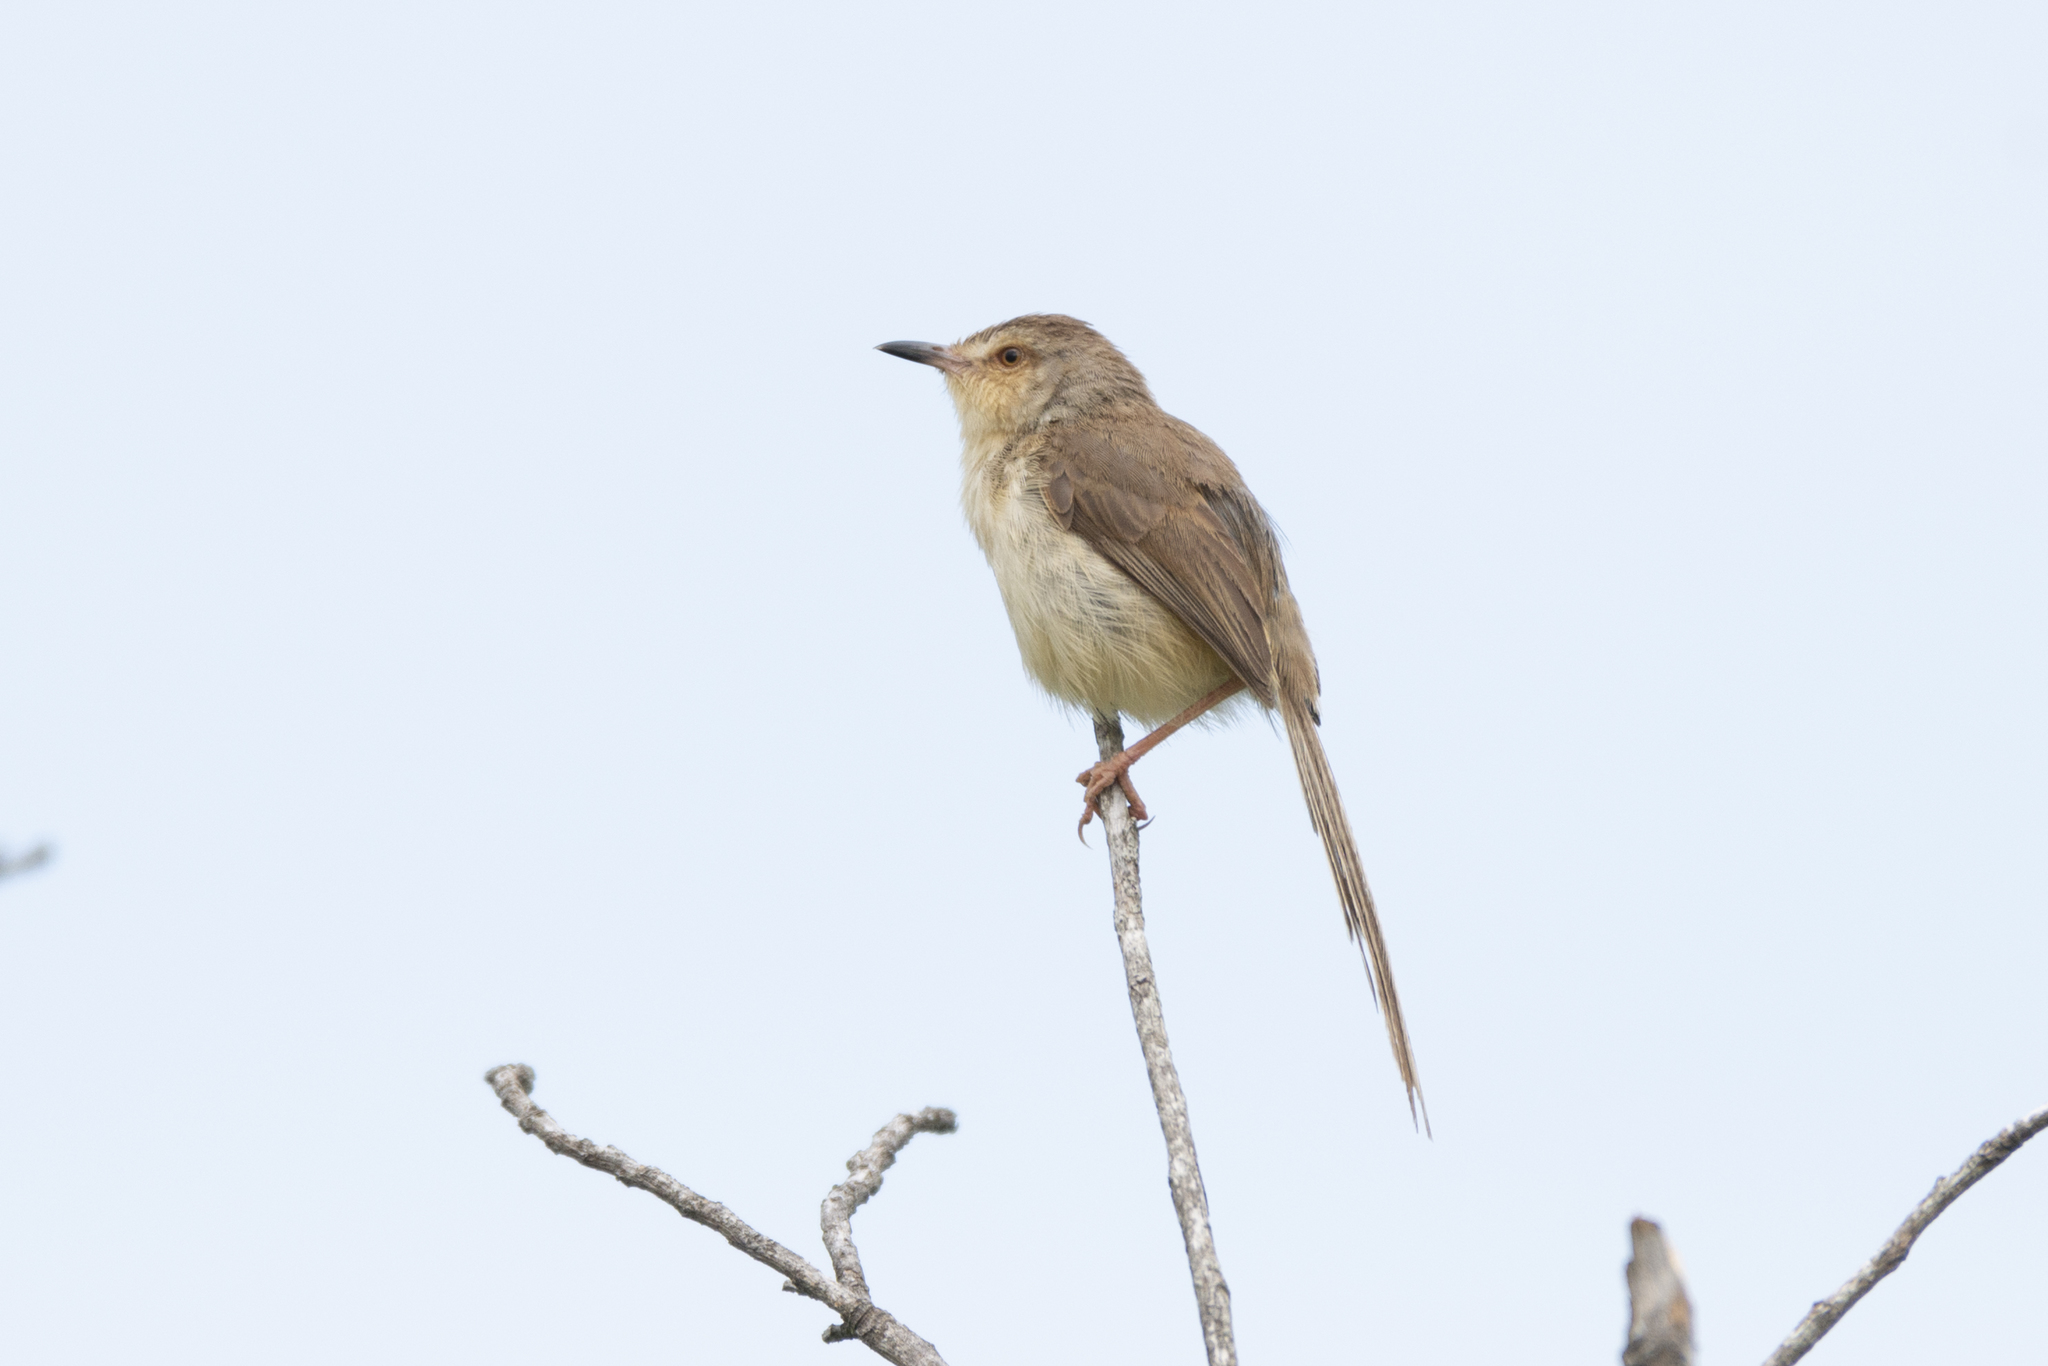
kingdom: Animalia
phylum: Chordata
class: Aves
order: Passeriformes
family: Cisticolidae
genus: Prinia
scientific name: Prinia inornata
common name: Plain prinia
